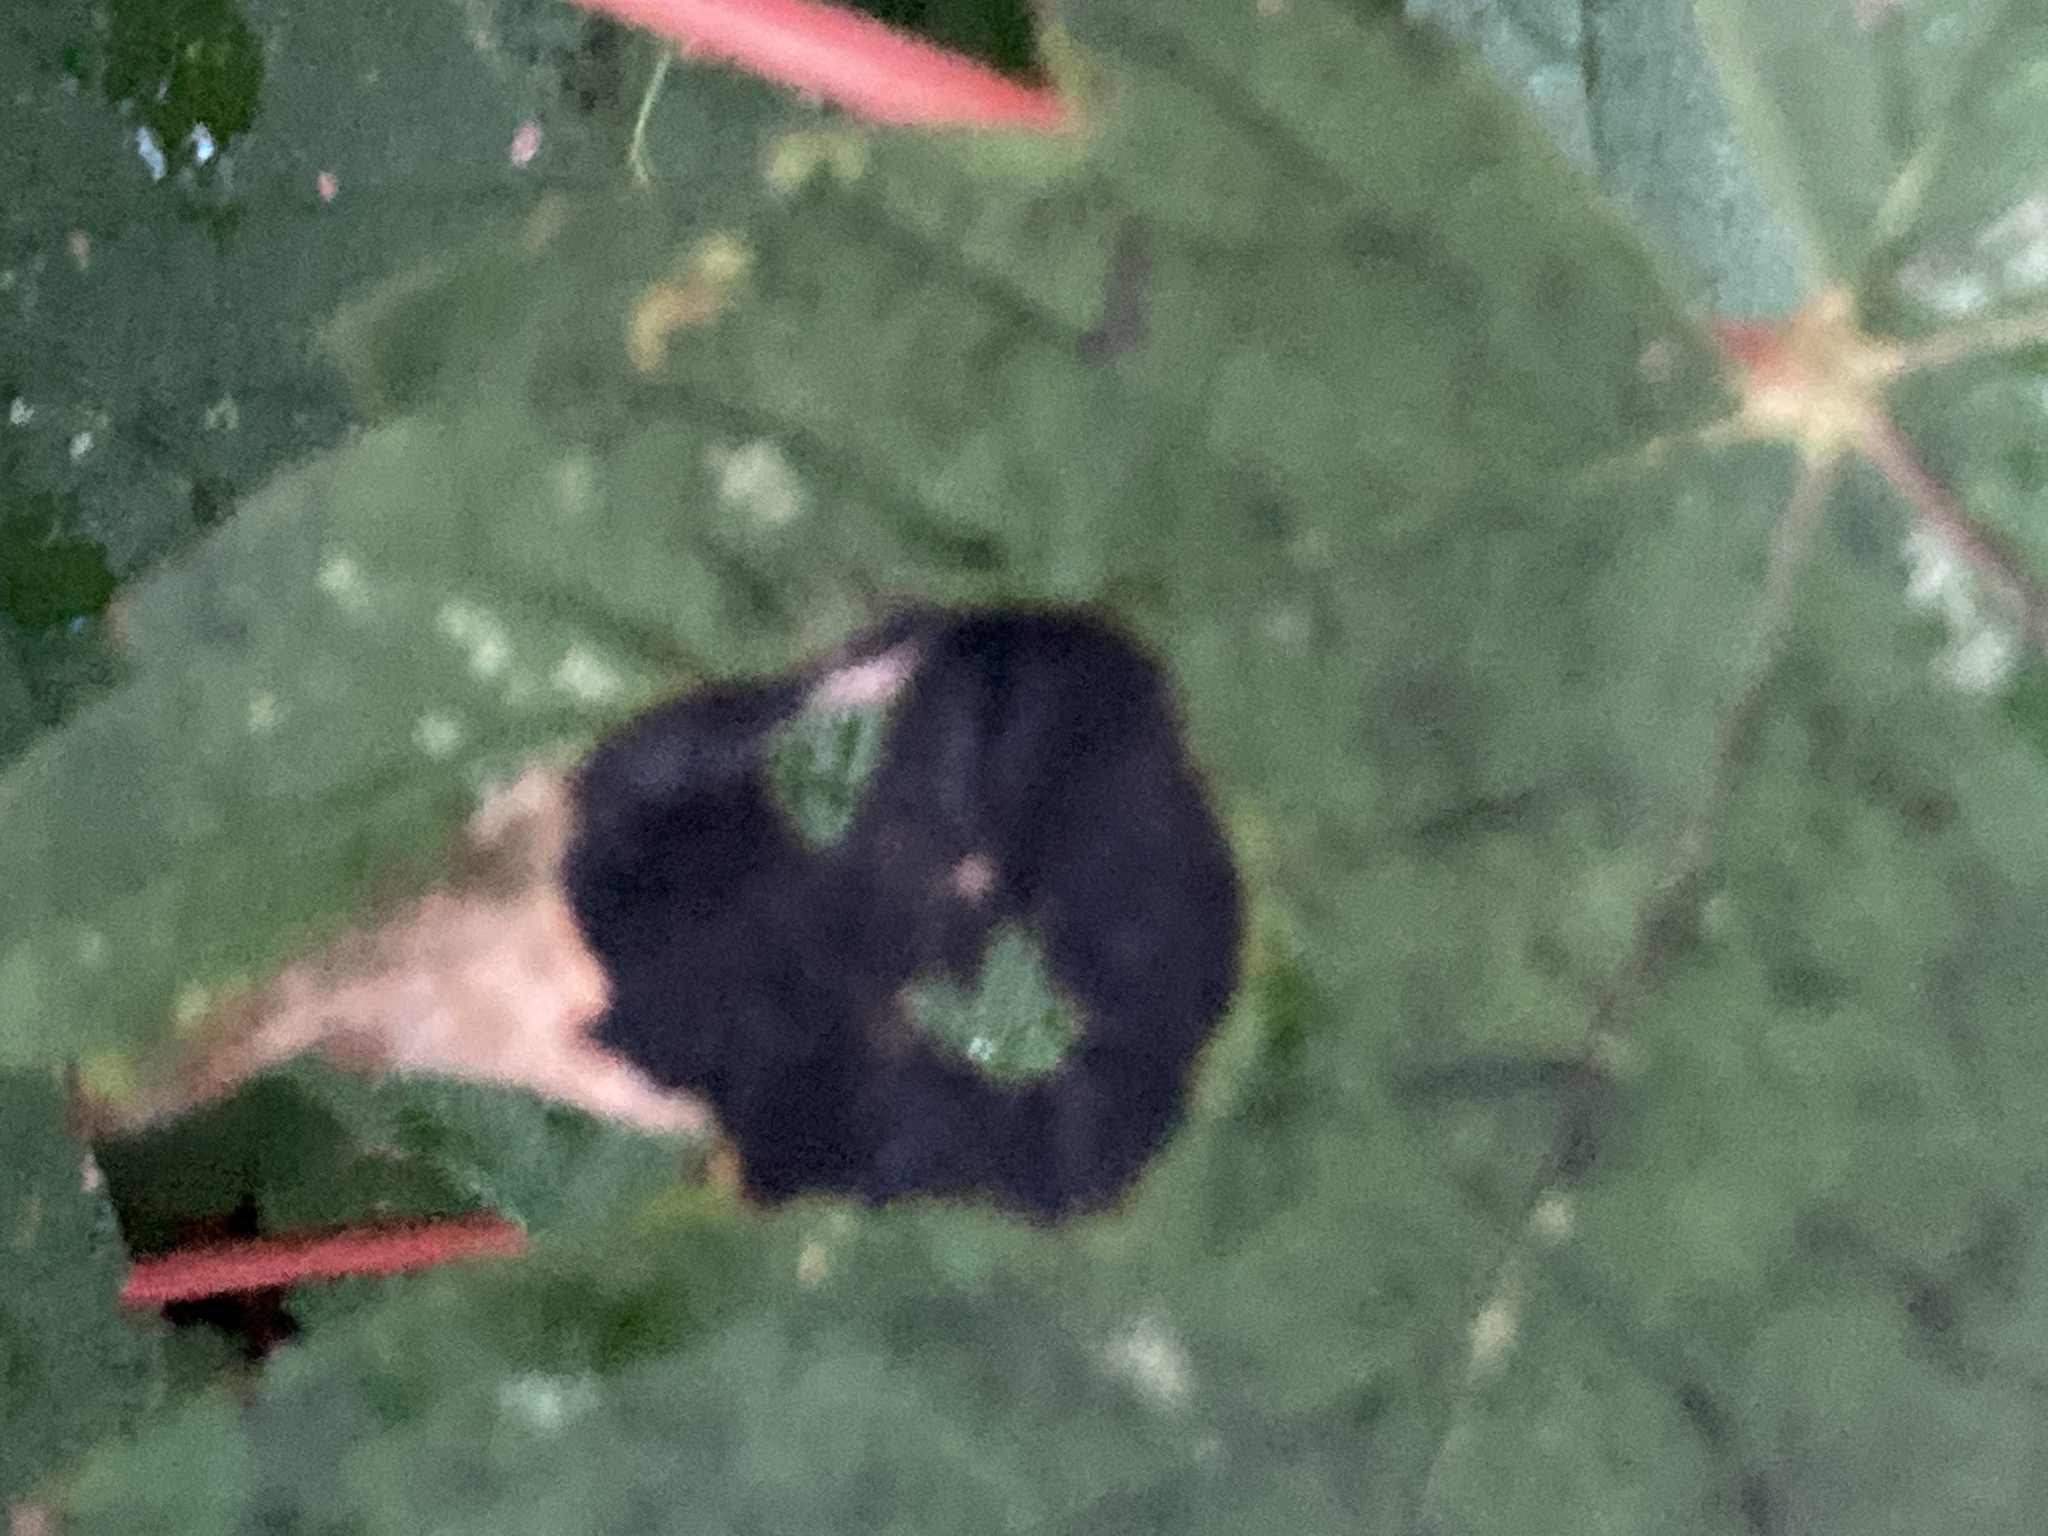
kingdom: Fungi
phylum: Ascomycota
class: Leotiomycetes
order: Rhytismatales
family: Rhytismataceae
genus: Rhytisma
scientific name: Rhytisma acerinum
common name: European tar spot
